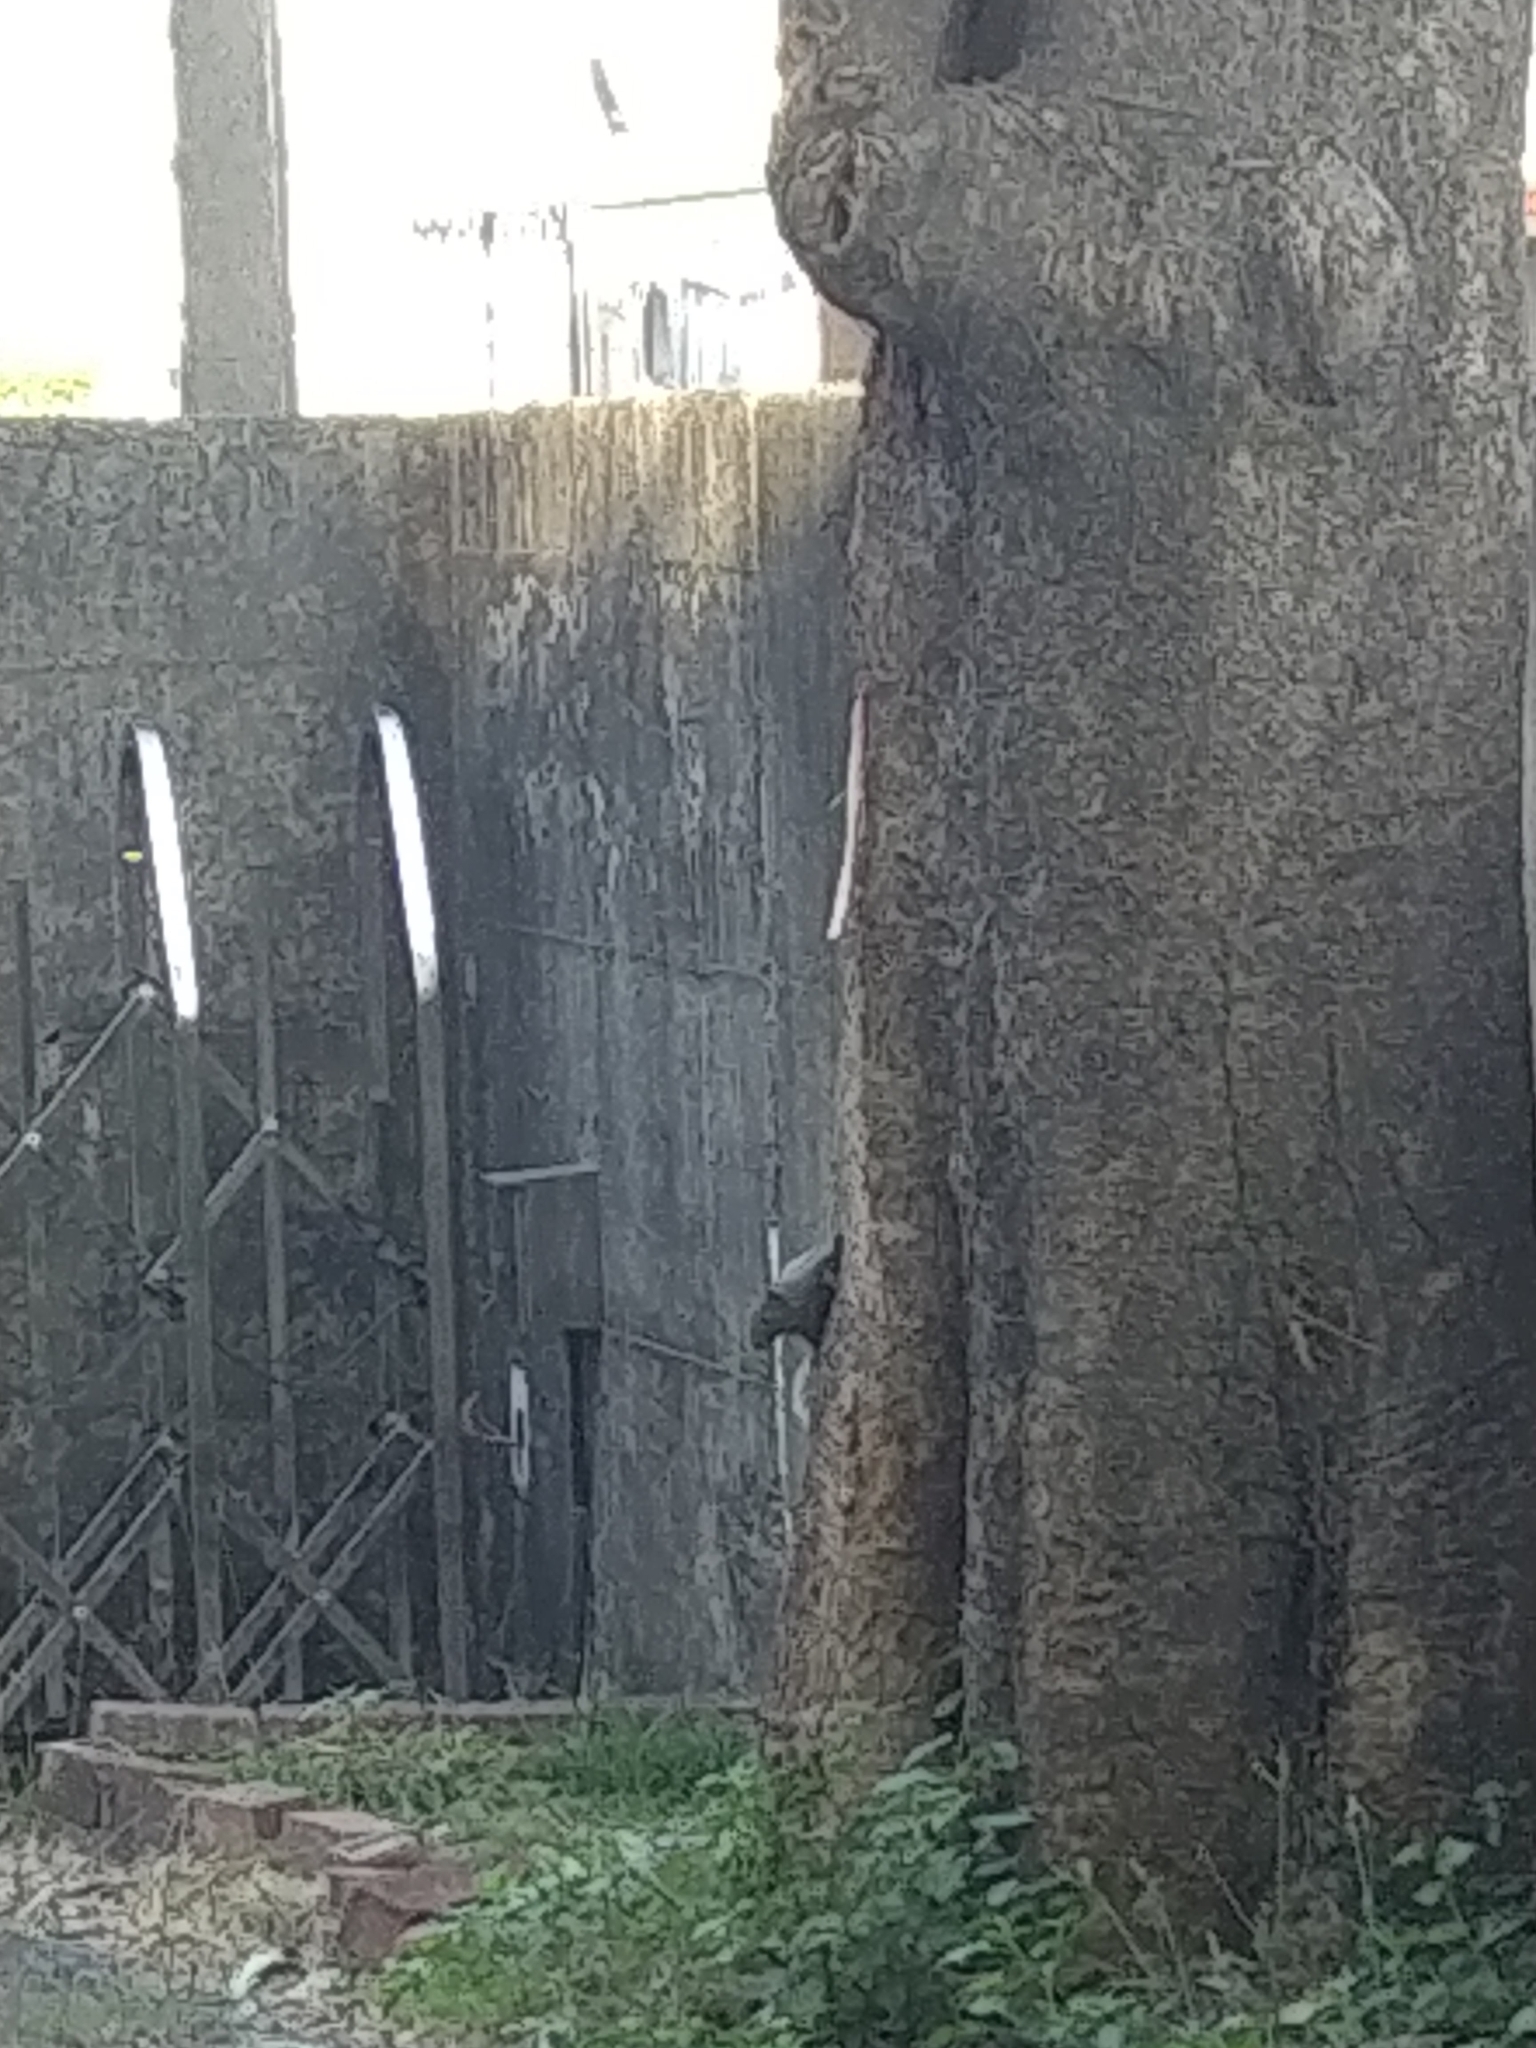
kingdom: Animalia
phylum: Chordata
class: Mammalia
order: Rodentia
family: Sciuridae
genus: Callosciurus
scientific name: Callosciurus erythraeus
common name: Pallas's squirrel
